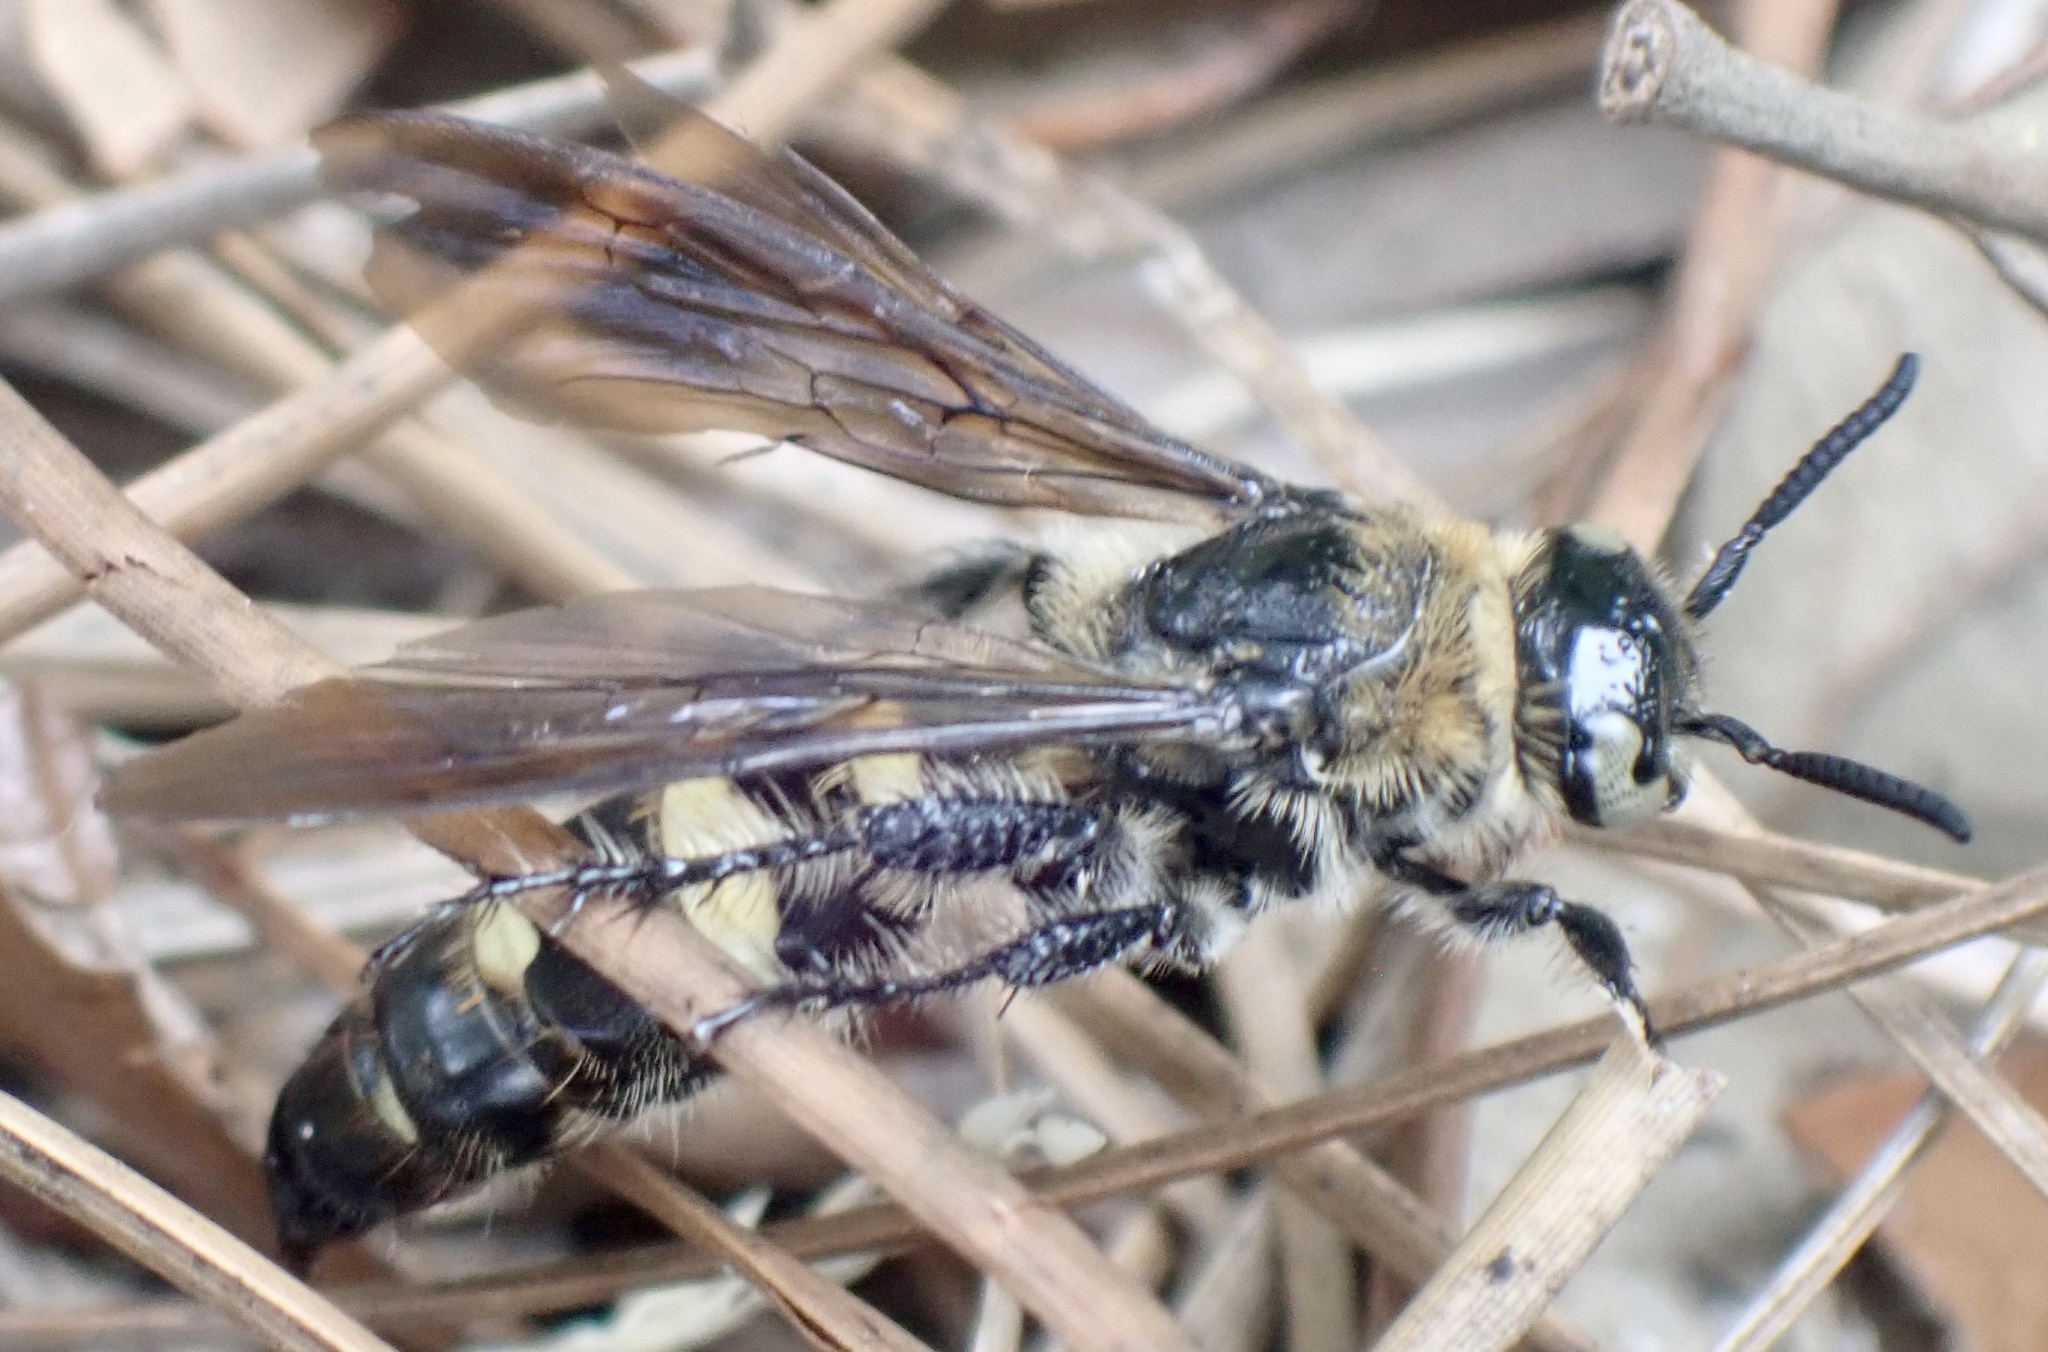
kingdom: Animalia
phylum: Arthropoda
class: Insecta
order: Hymenoptera
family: Scoliidae
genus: Dielis
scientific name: Dielis
